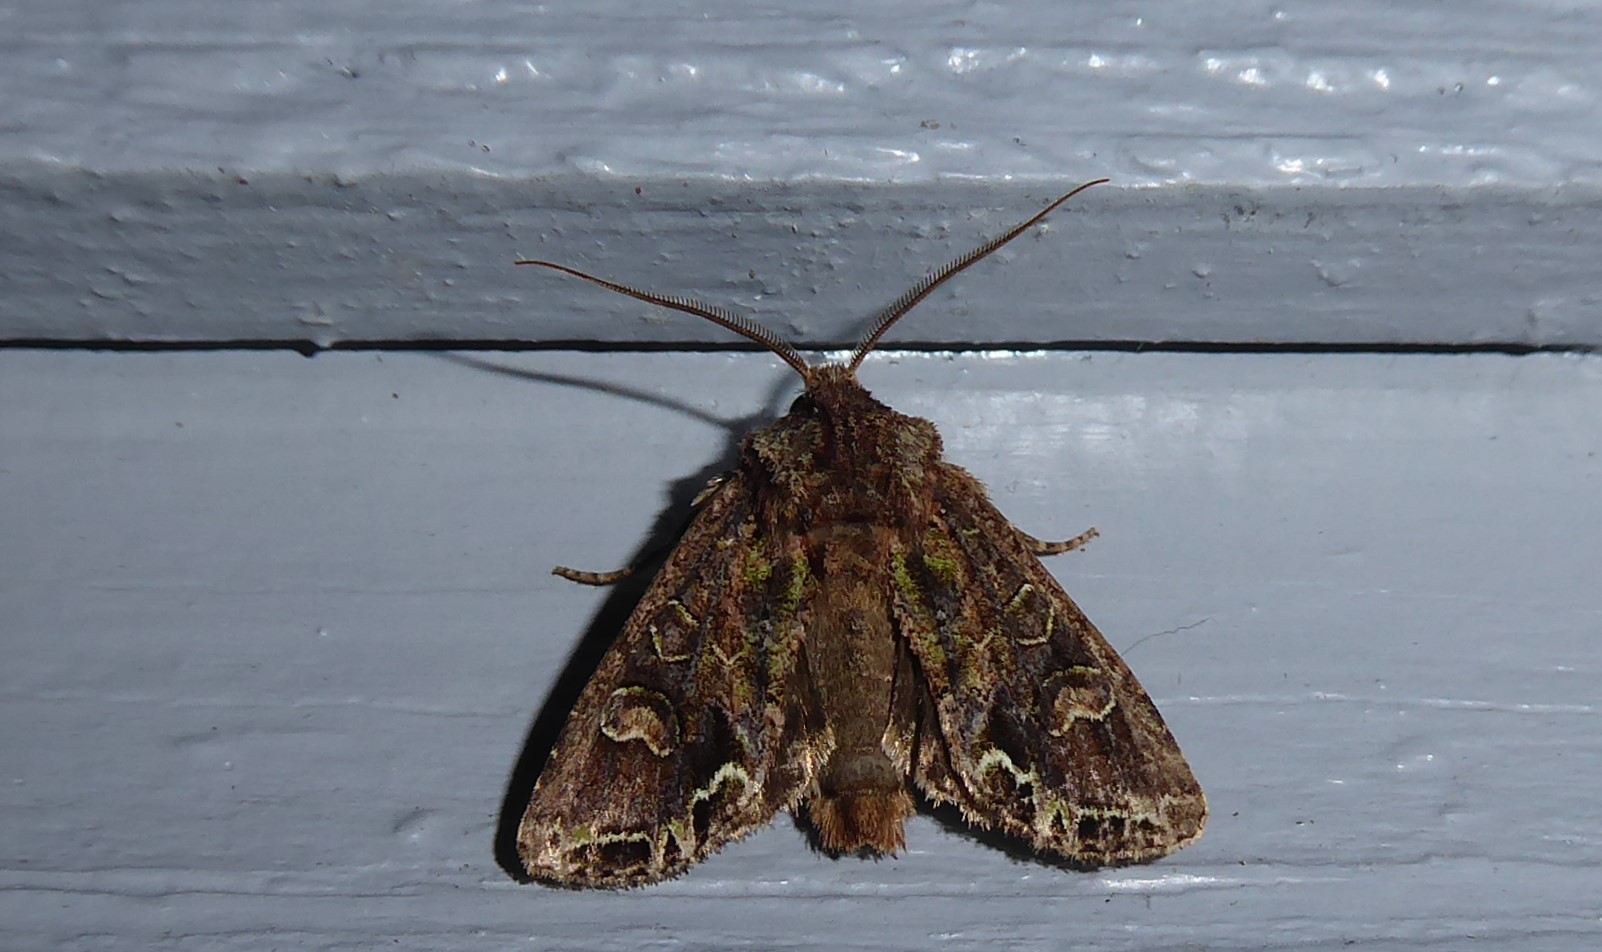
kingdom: Animalia
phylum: Arthropoda
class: Insecta
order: Lepidoptera
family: Noctuidae
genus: Ichneutica
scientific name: Ichneutica insignis
